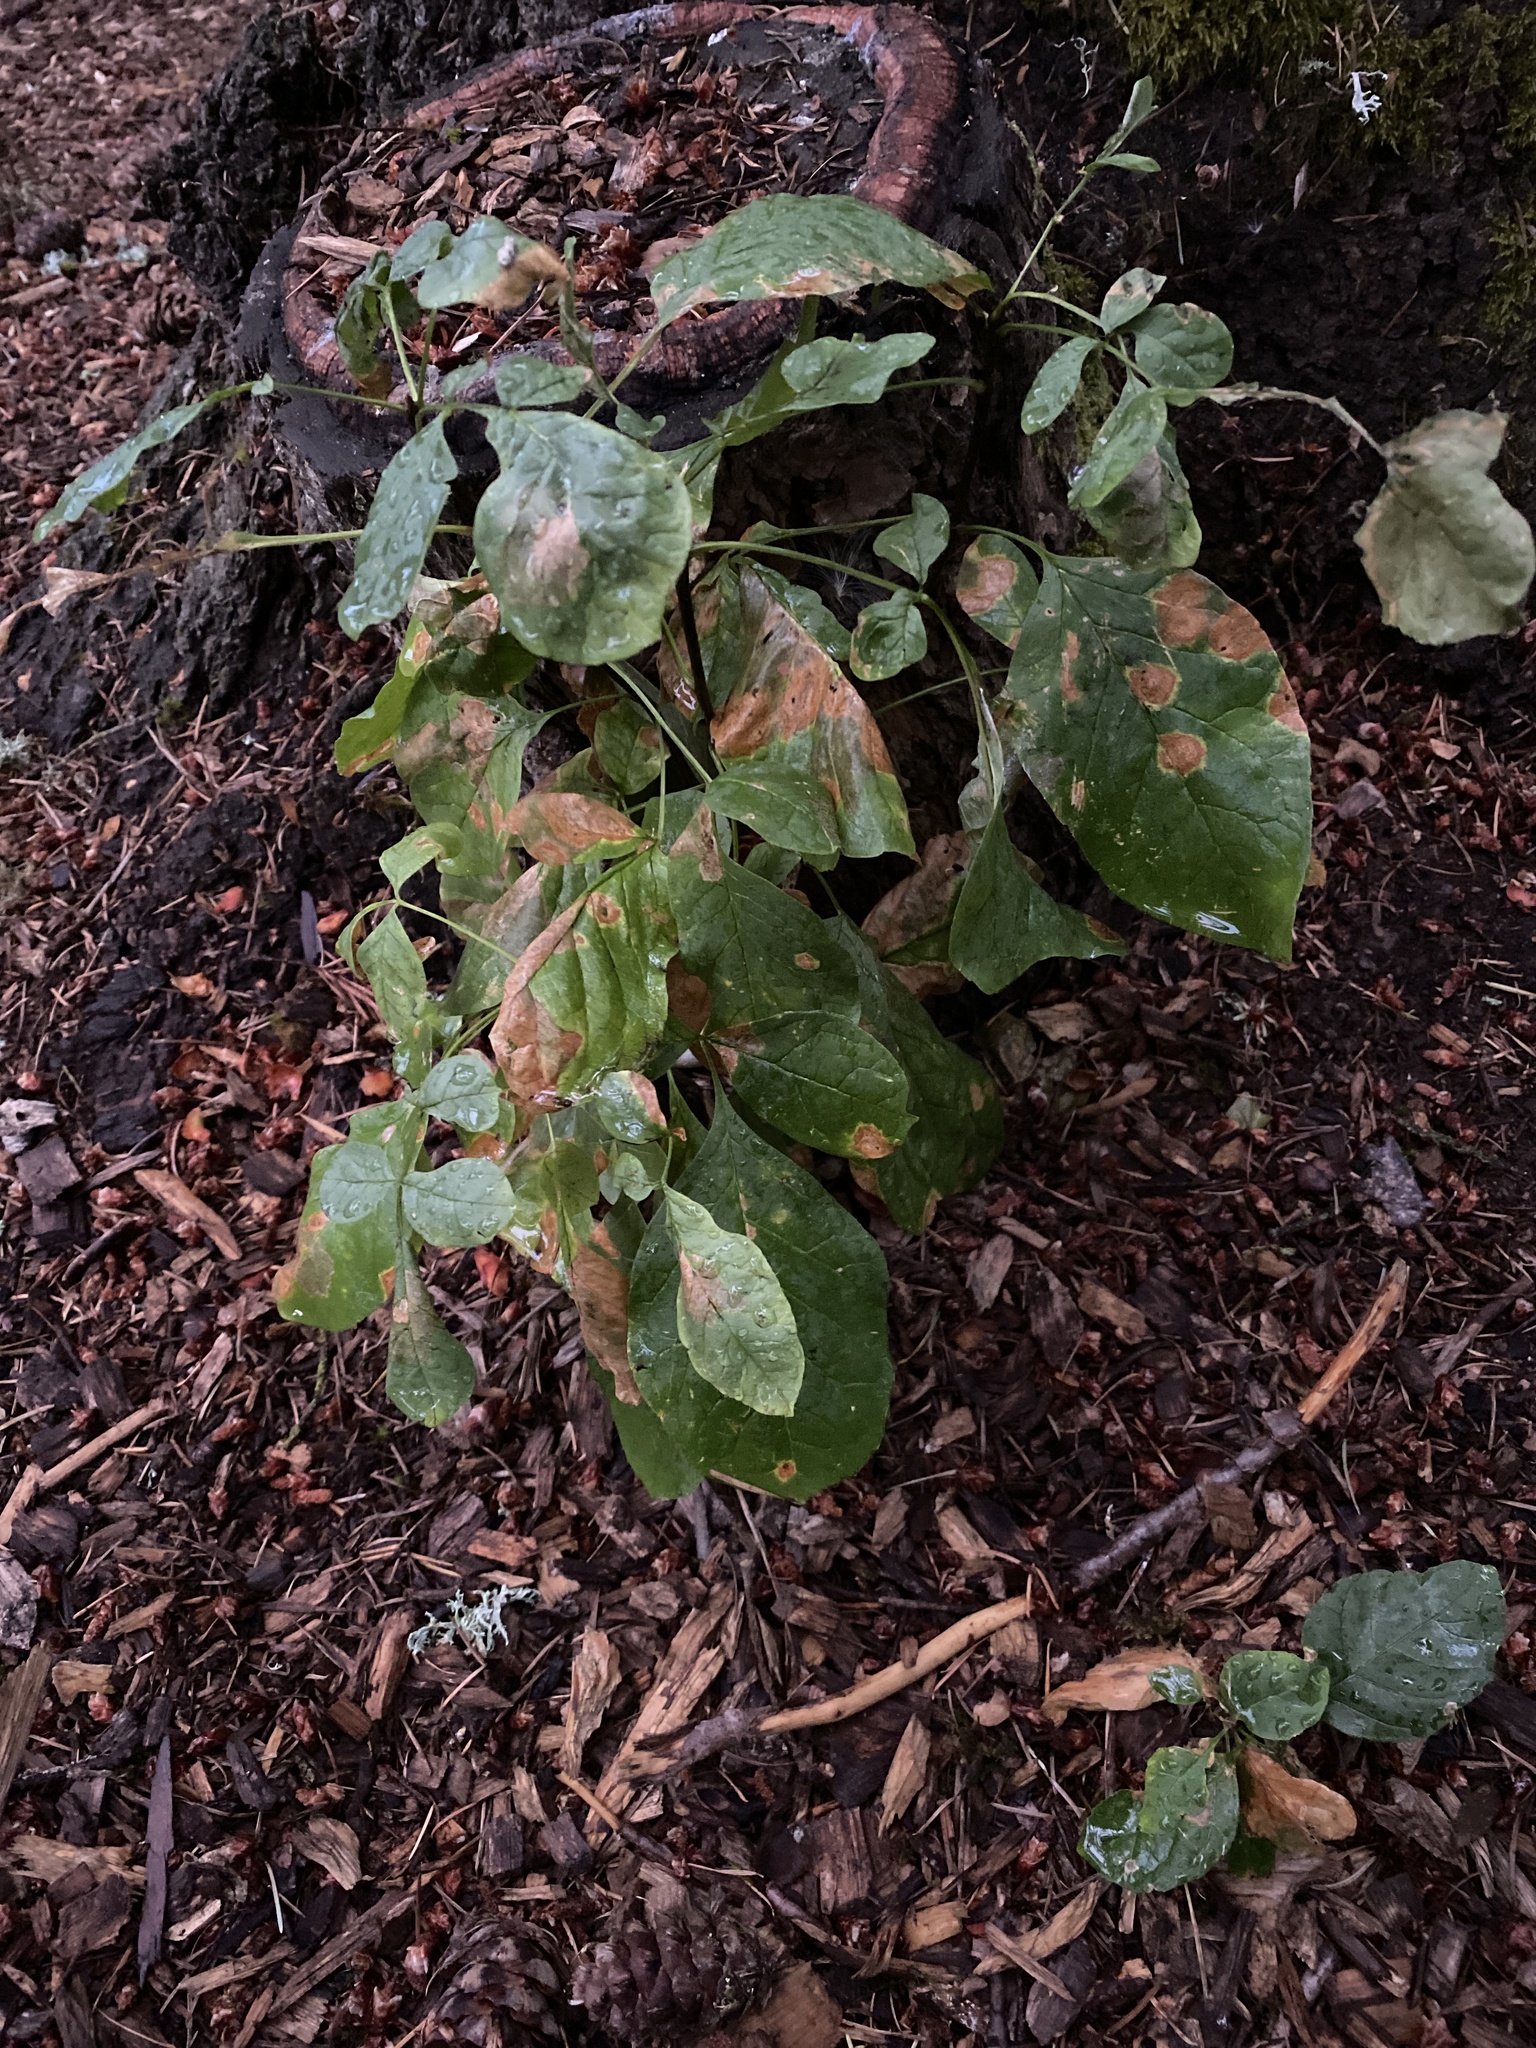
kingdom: Plantae
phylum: Tracheophyta
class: Magnoliopsida
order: Lamiales
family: Oleaceae
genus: Fraxinus
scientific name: Fraxinus latifolia
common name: Oregon ash
